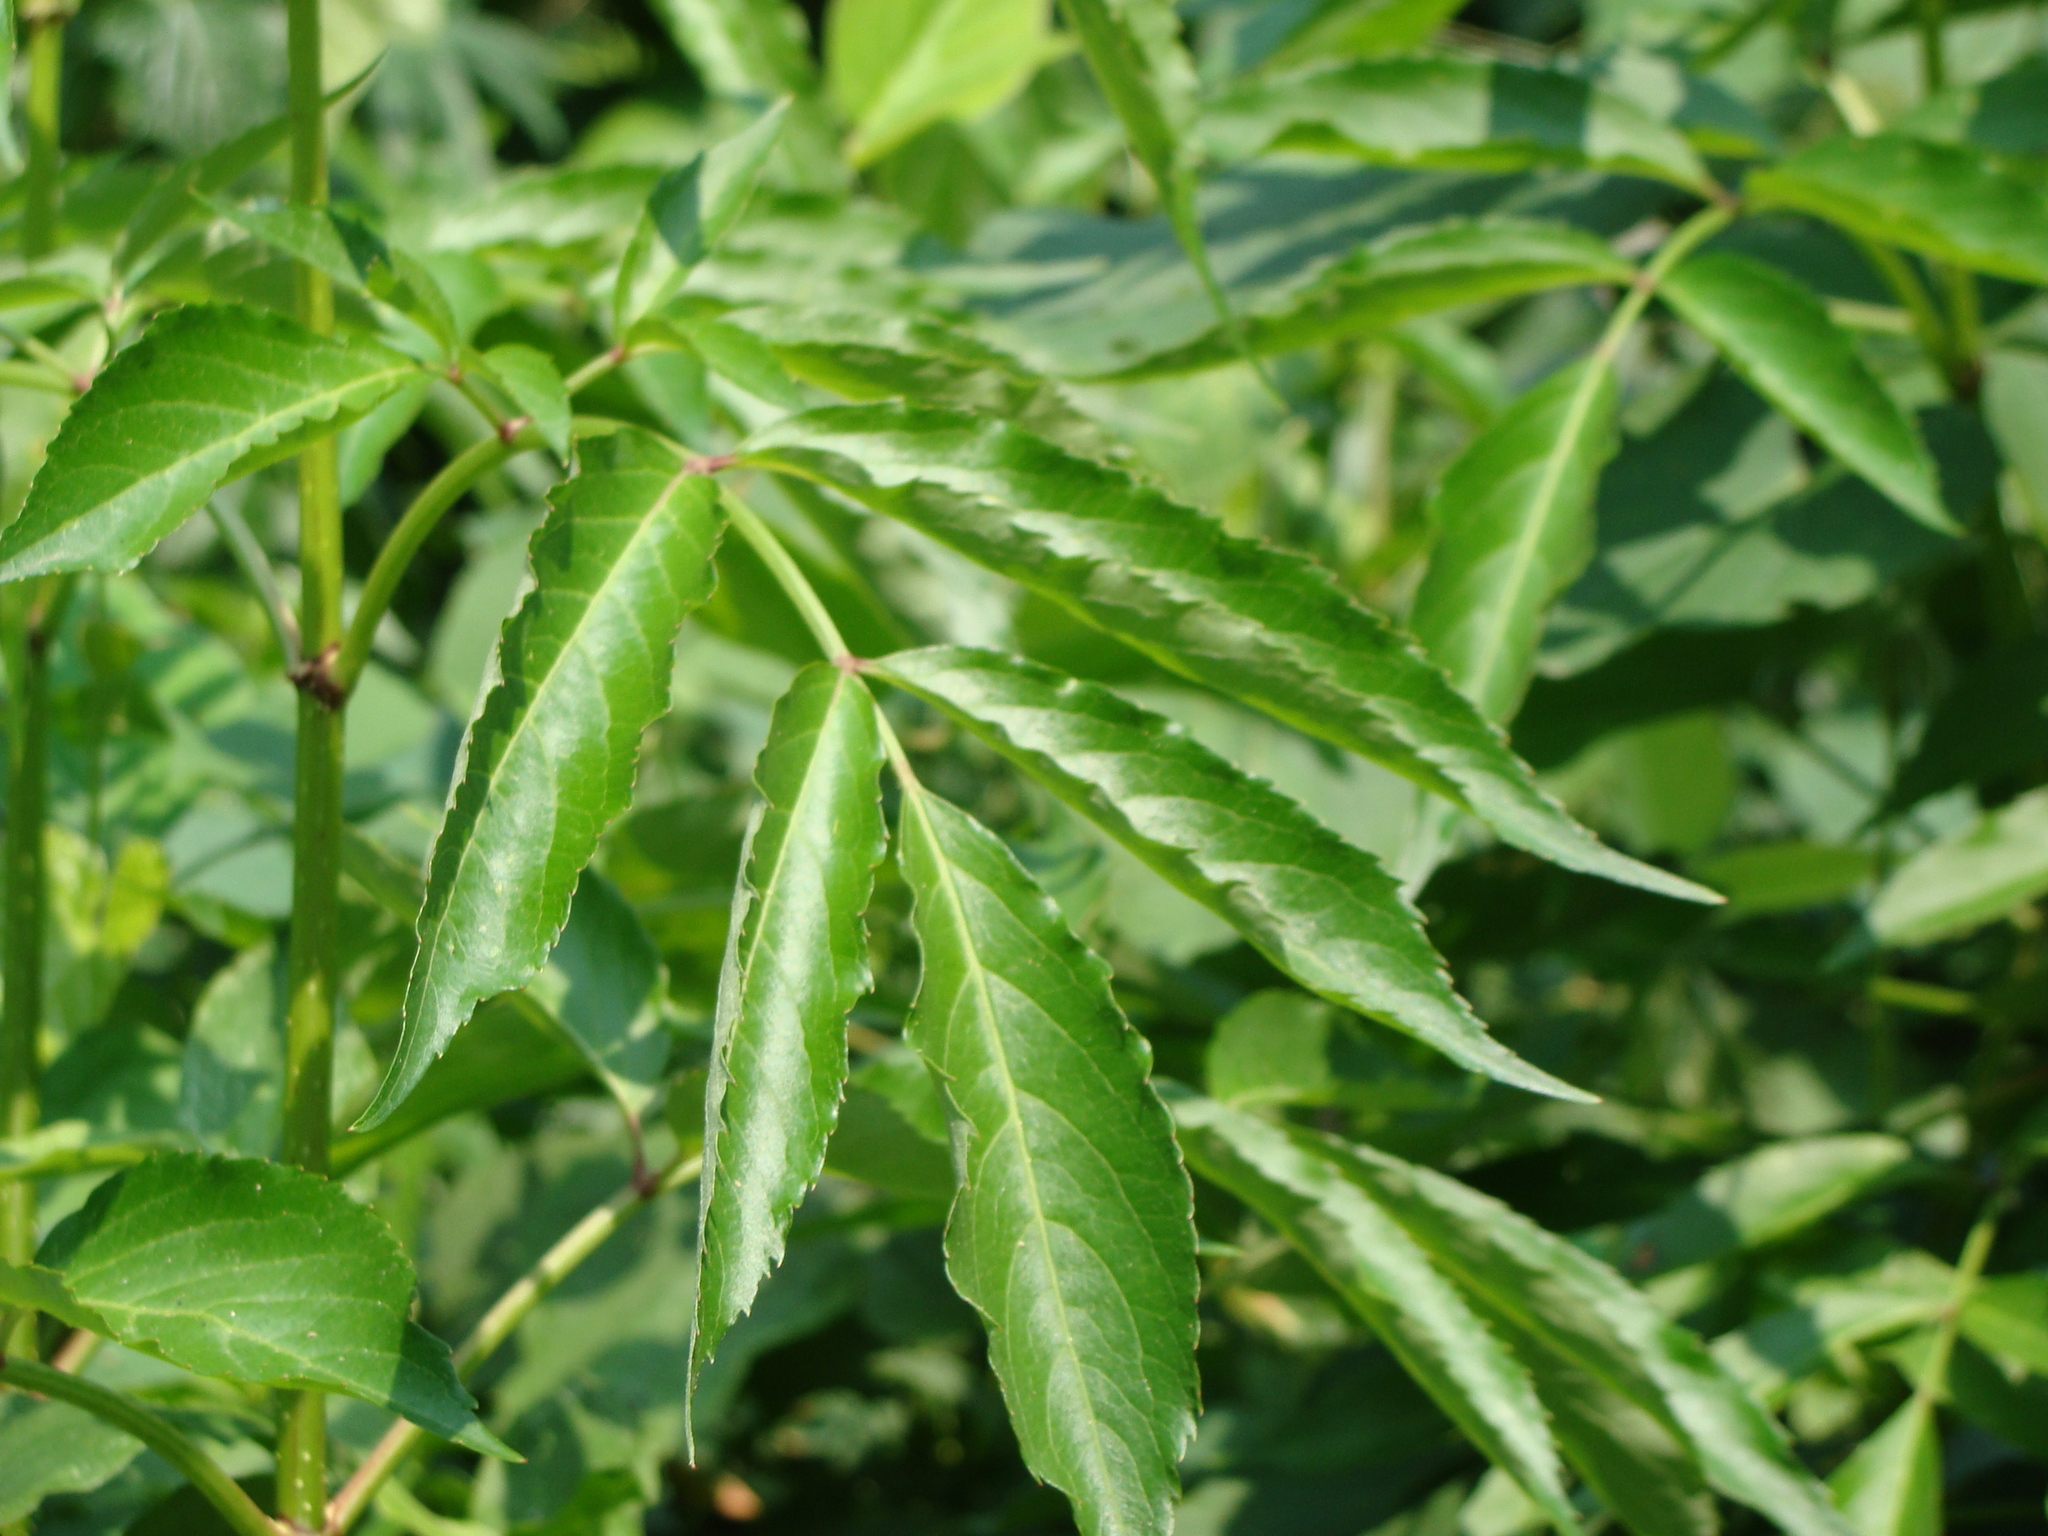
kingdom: Plantae
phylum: Tracheophyta
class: Magnoliopsida
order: Dipsacales
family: Viburnaceae
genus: Sambucus
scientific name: Sambucus canadensis
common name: American elder
